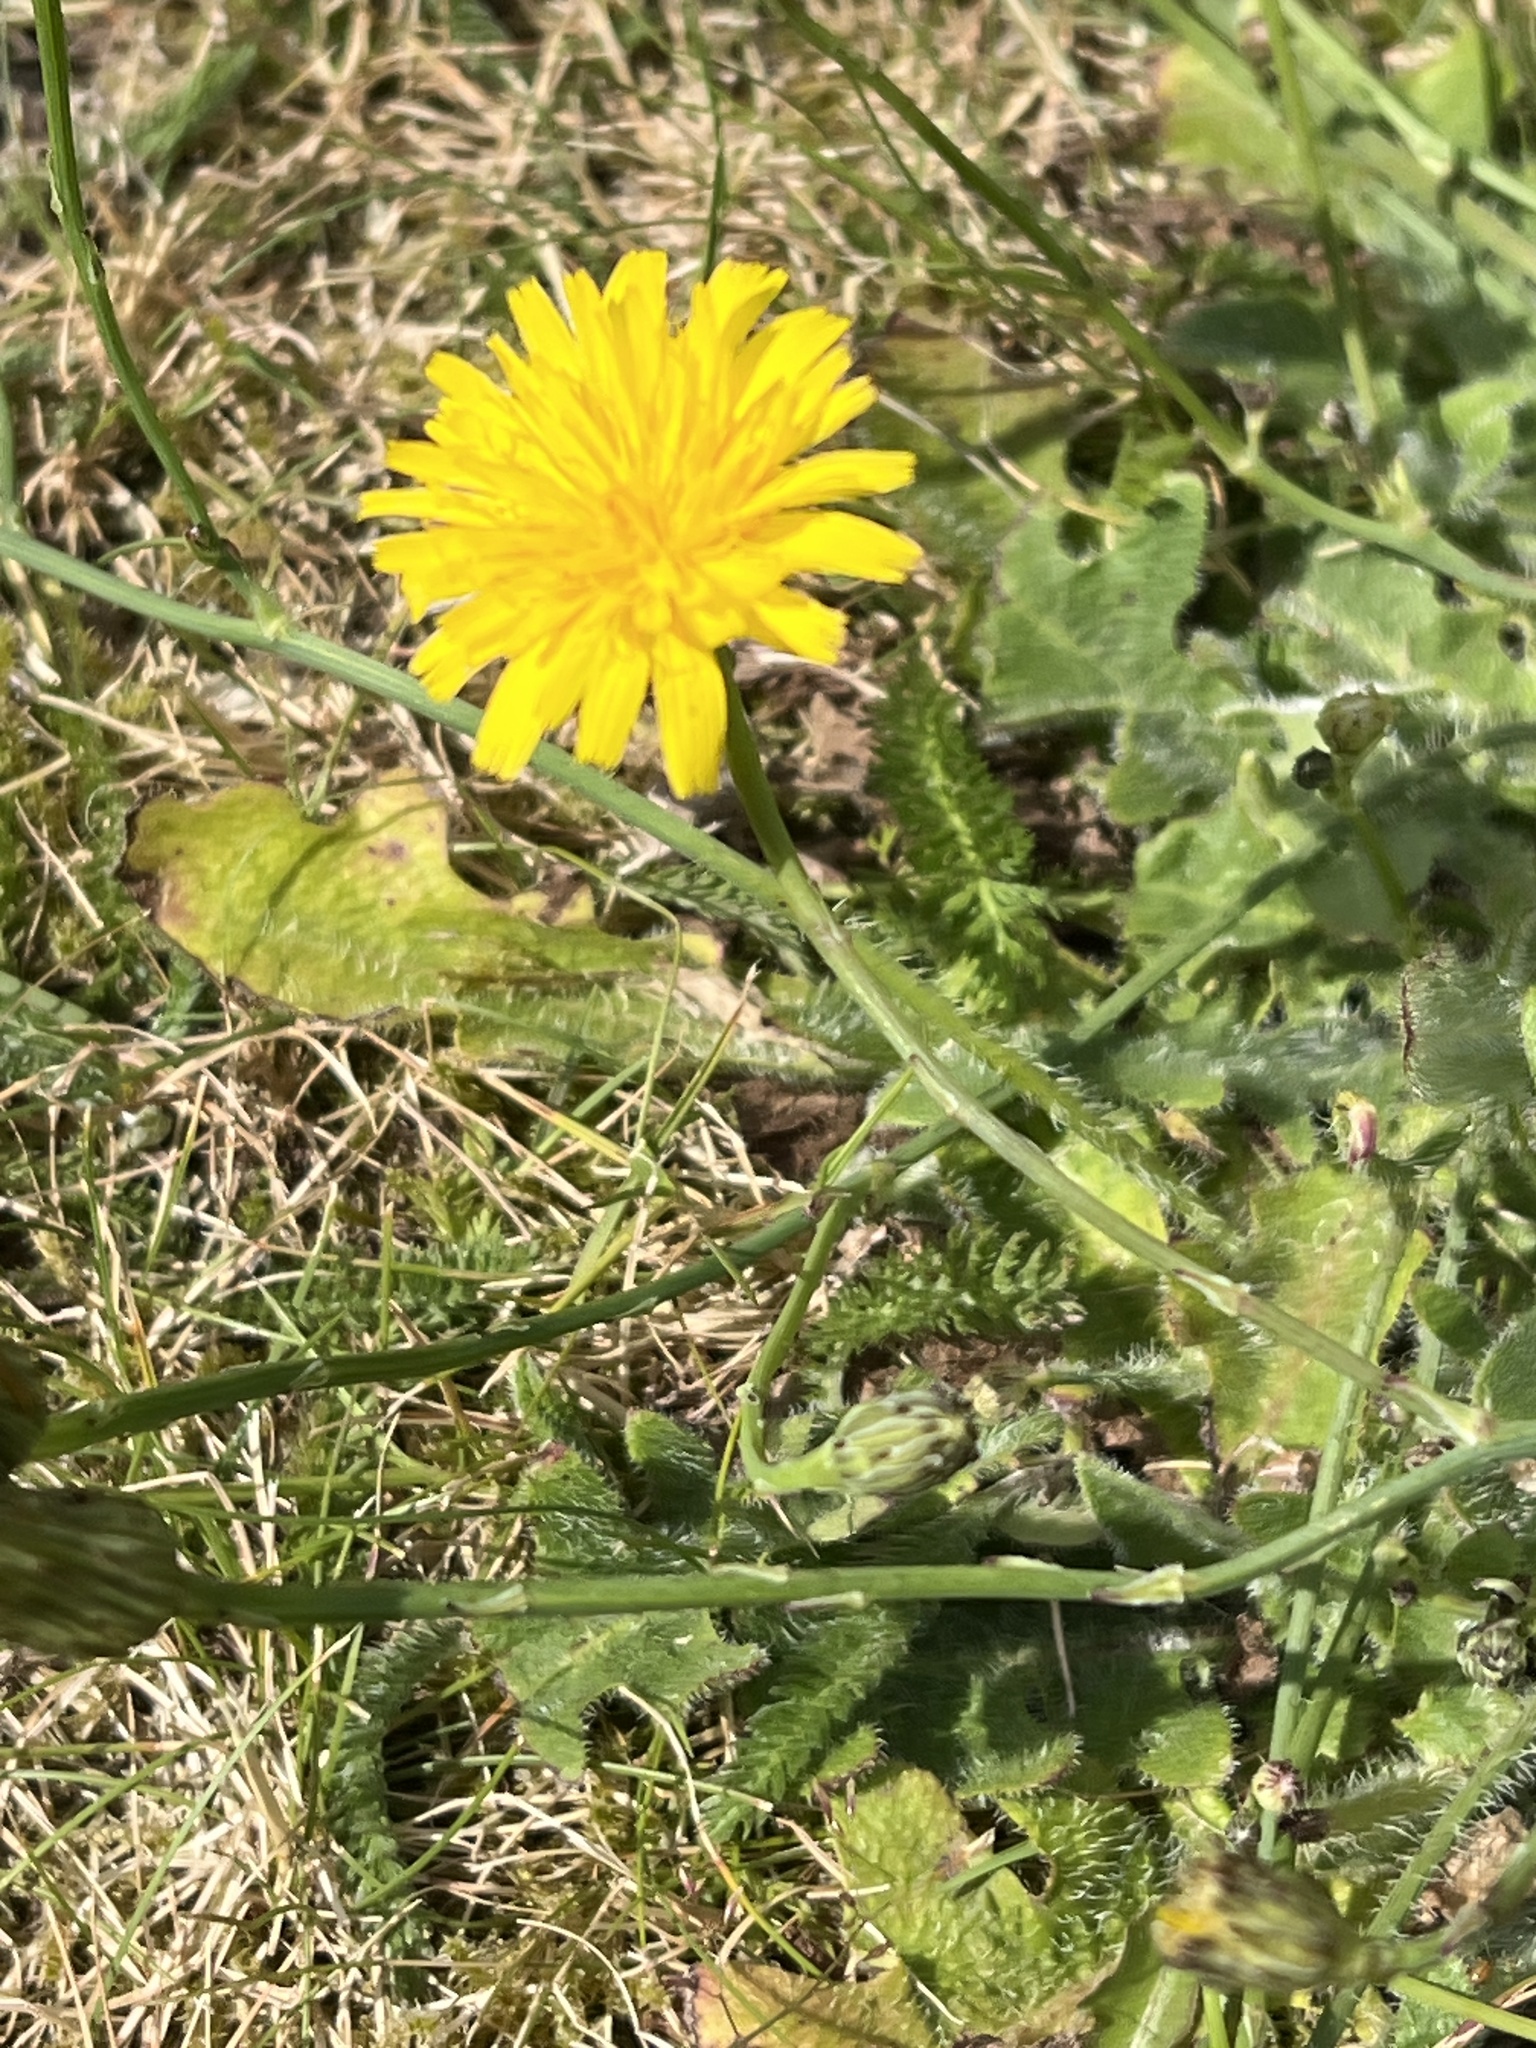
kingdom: Plantae
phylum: Tracheophyta
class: Magnoliopsida
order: Asterales
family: Asteraceae
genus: Hypochaeris
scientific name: Hypochaeris radicata
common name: Flatweed
